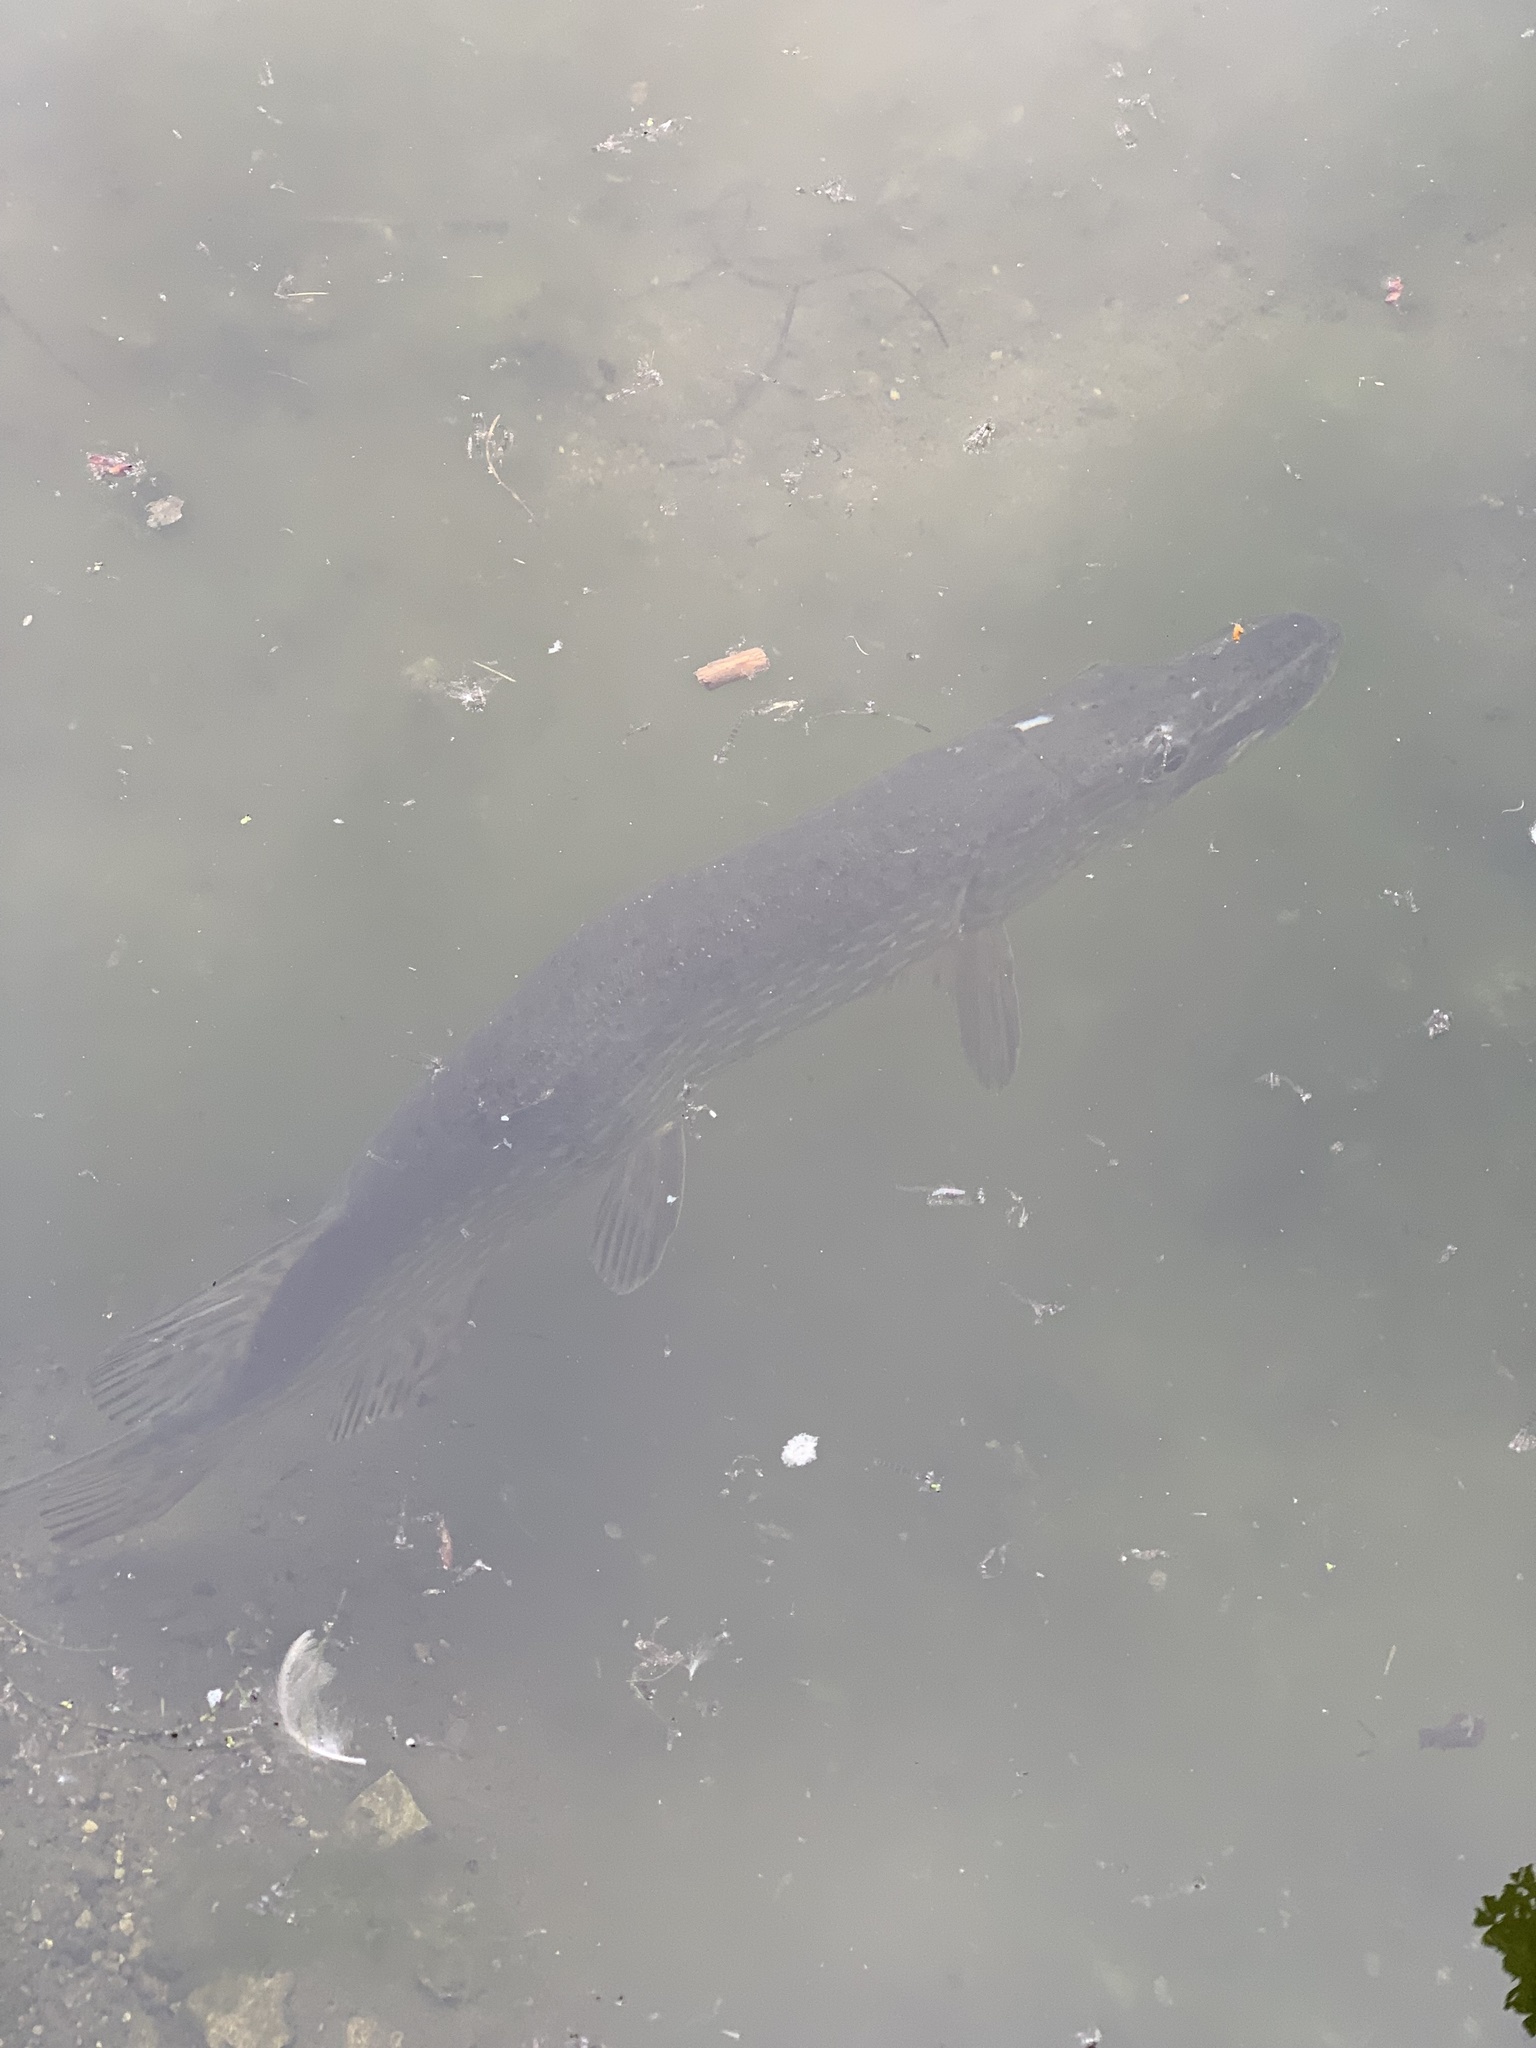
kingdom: Animalia
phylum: Chordata
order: Esociformes
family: Esocidae
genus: Esox
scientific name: Esox lucius
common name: Northern pike
